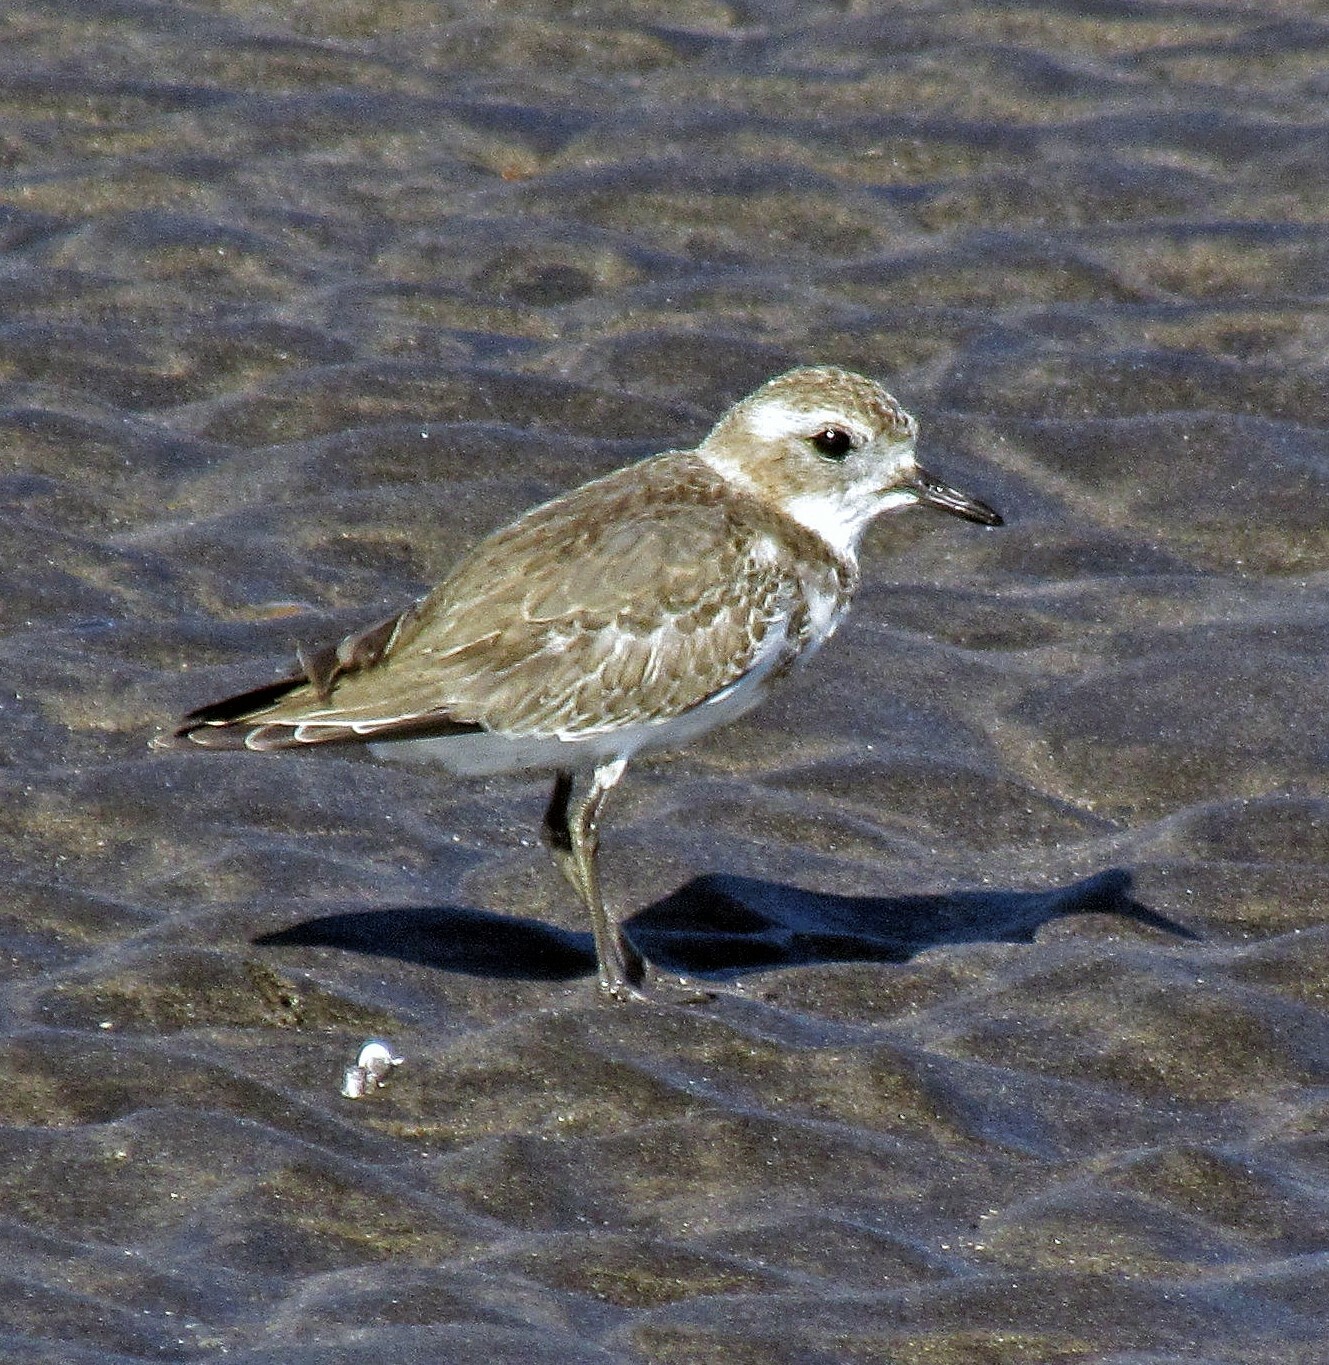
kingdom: Animalia
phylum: Chordata
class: Aves
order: Charadriiformes
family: Charadriidae
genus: Anarhynchus
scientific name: Anarhynchus
